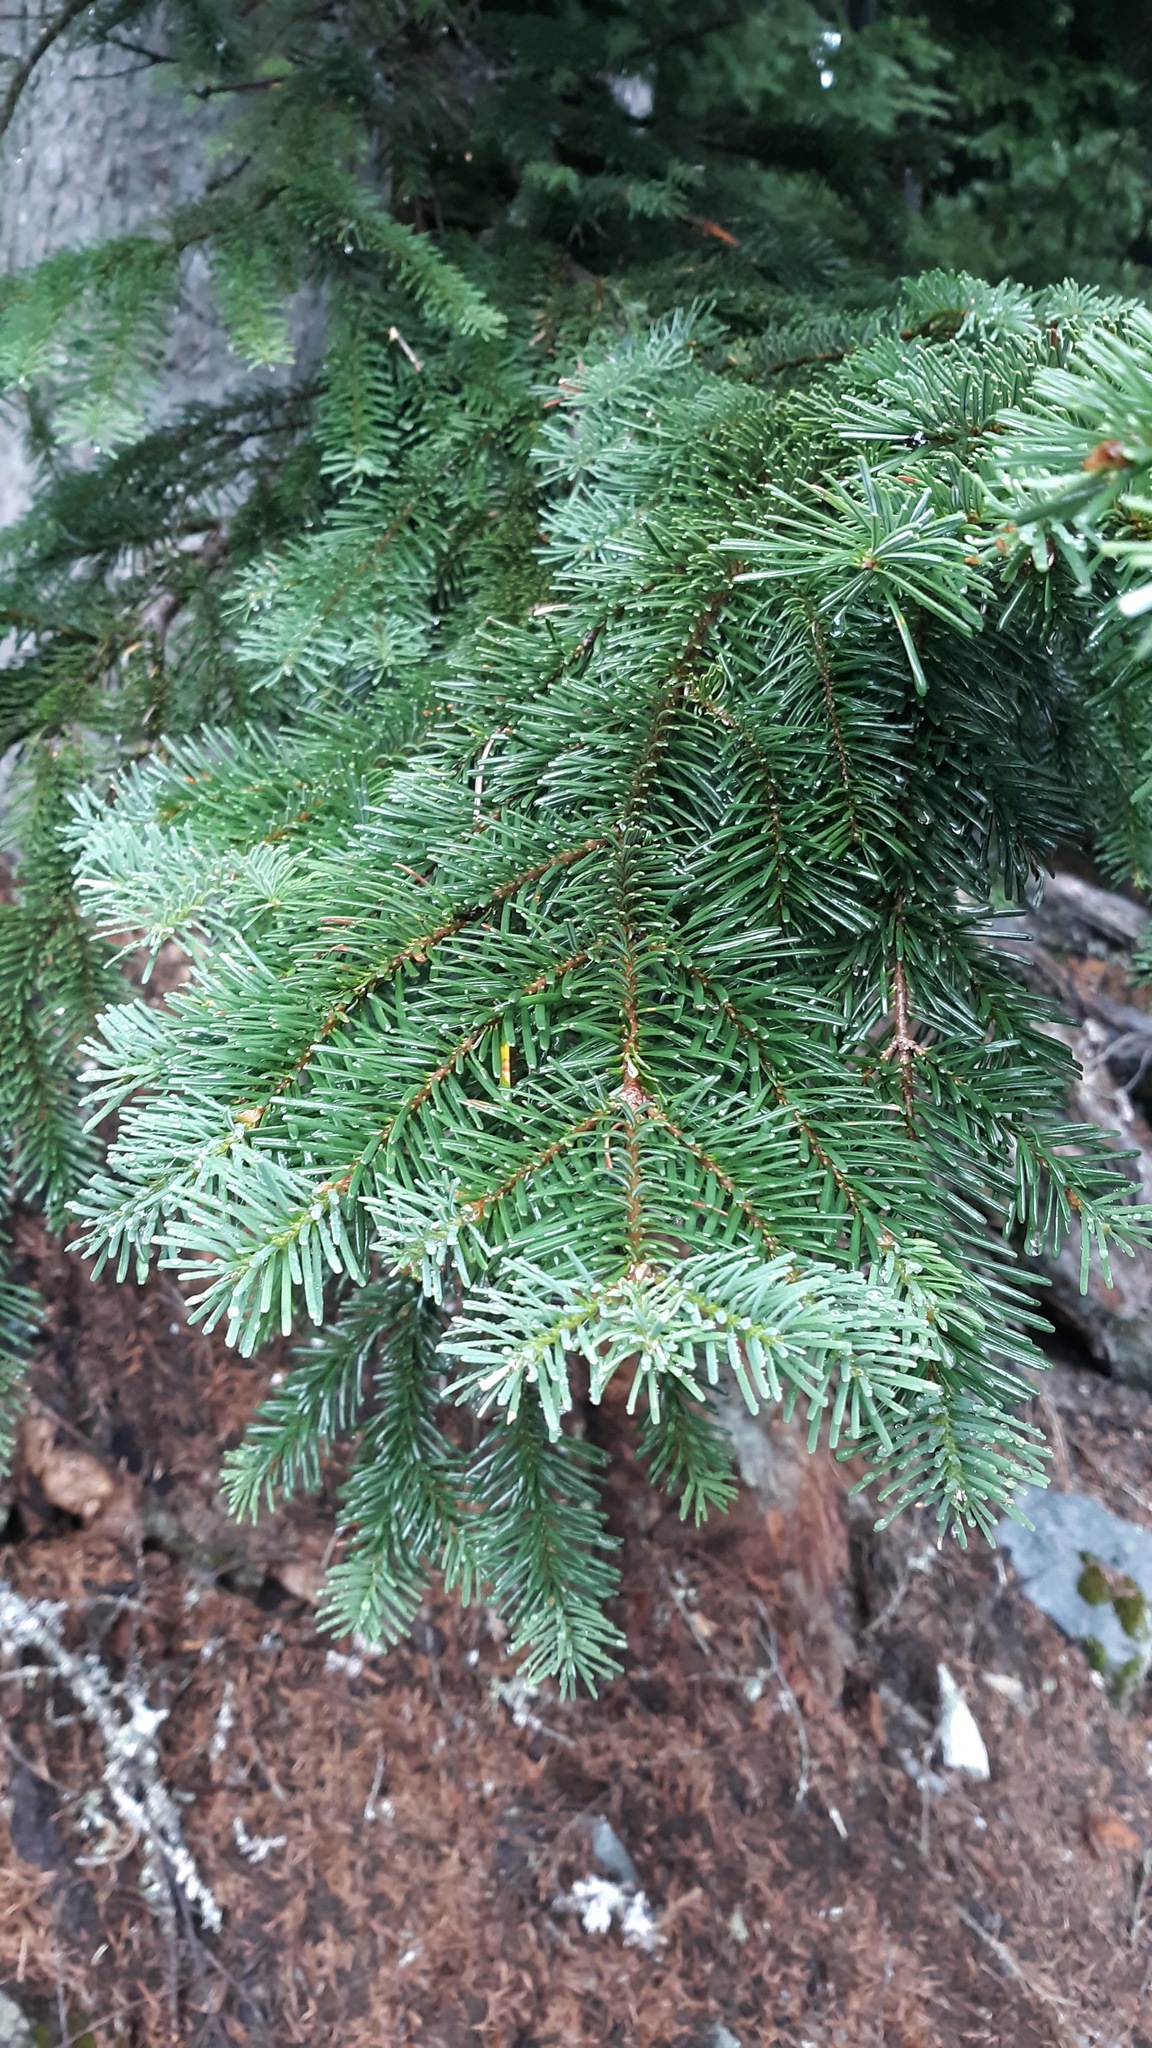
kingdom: Plantae
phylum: Tracheophyta
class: Pinopsida
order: Pinales
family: Pinaceae
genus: Abies
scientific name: Abies amabilis
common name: Pacific silver fir
